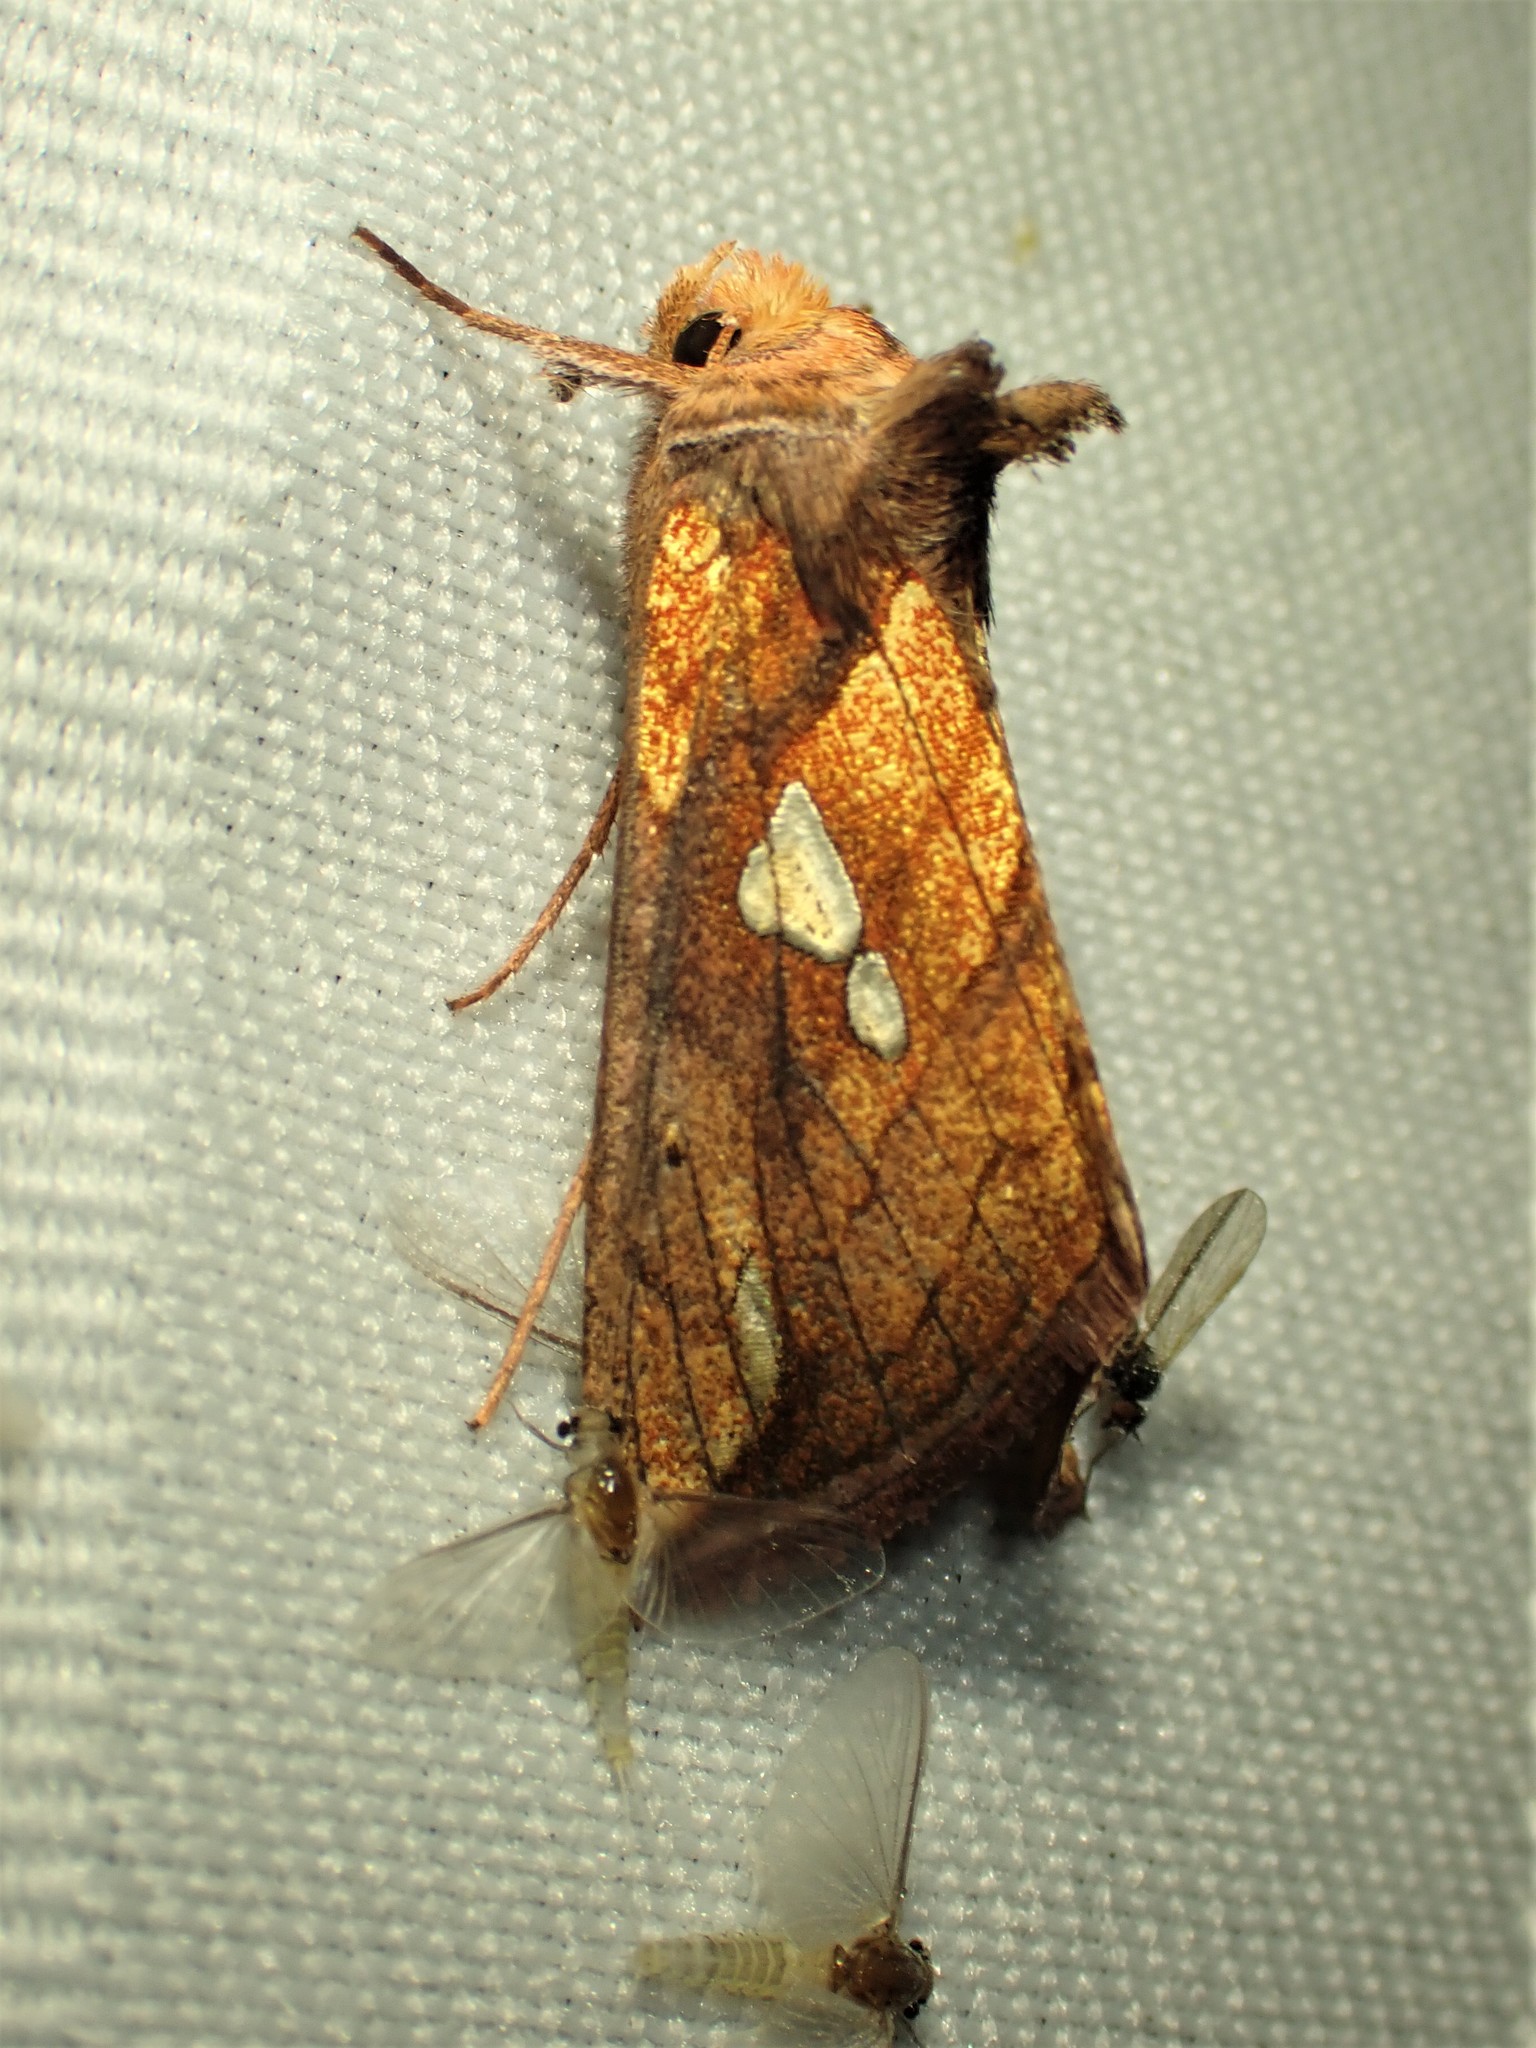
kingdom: Animalia
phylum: Arthropoda
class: Insecta
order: Lepidoptera
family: Noctuidae
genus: Plusia
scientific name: Plusia putnami
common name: Lempke's gold spot
